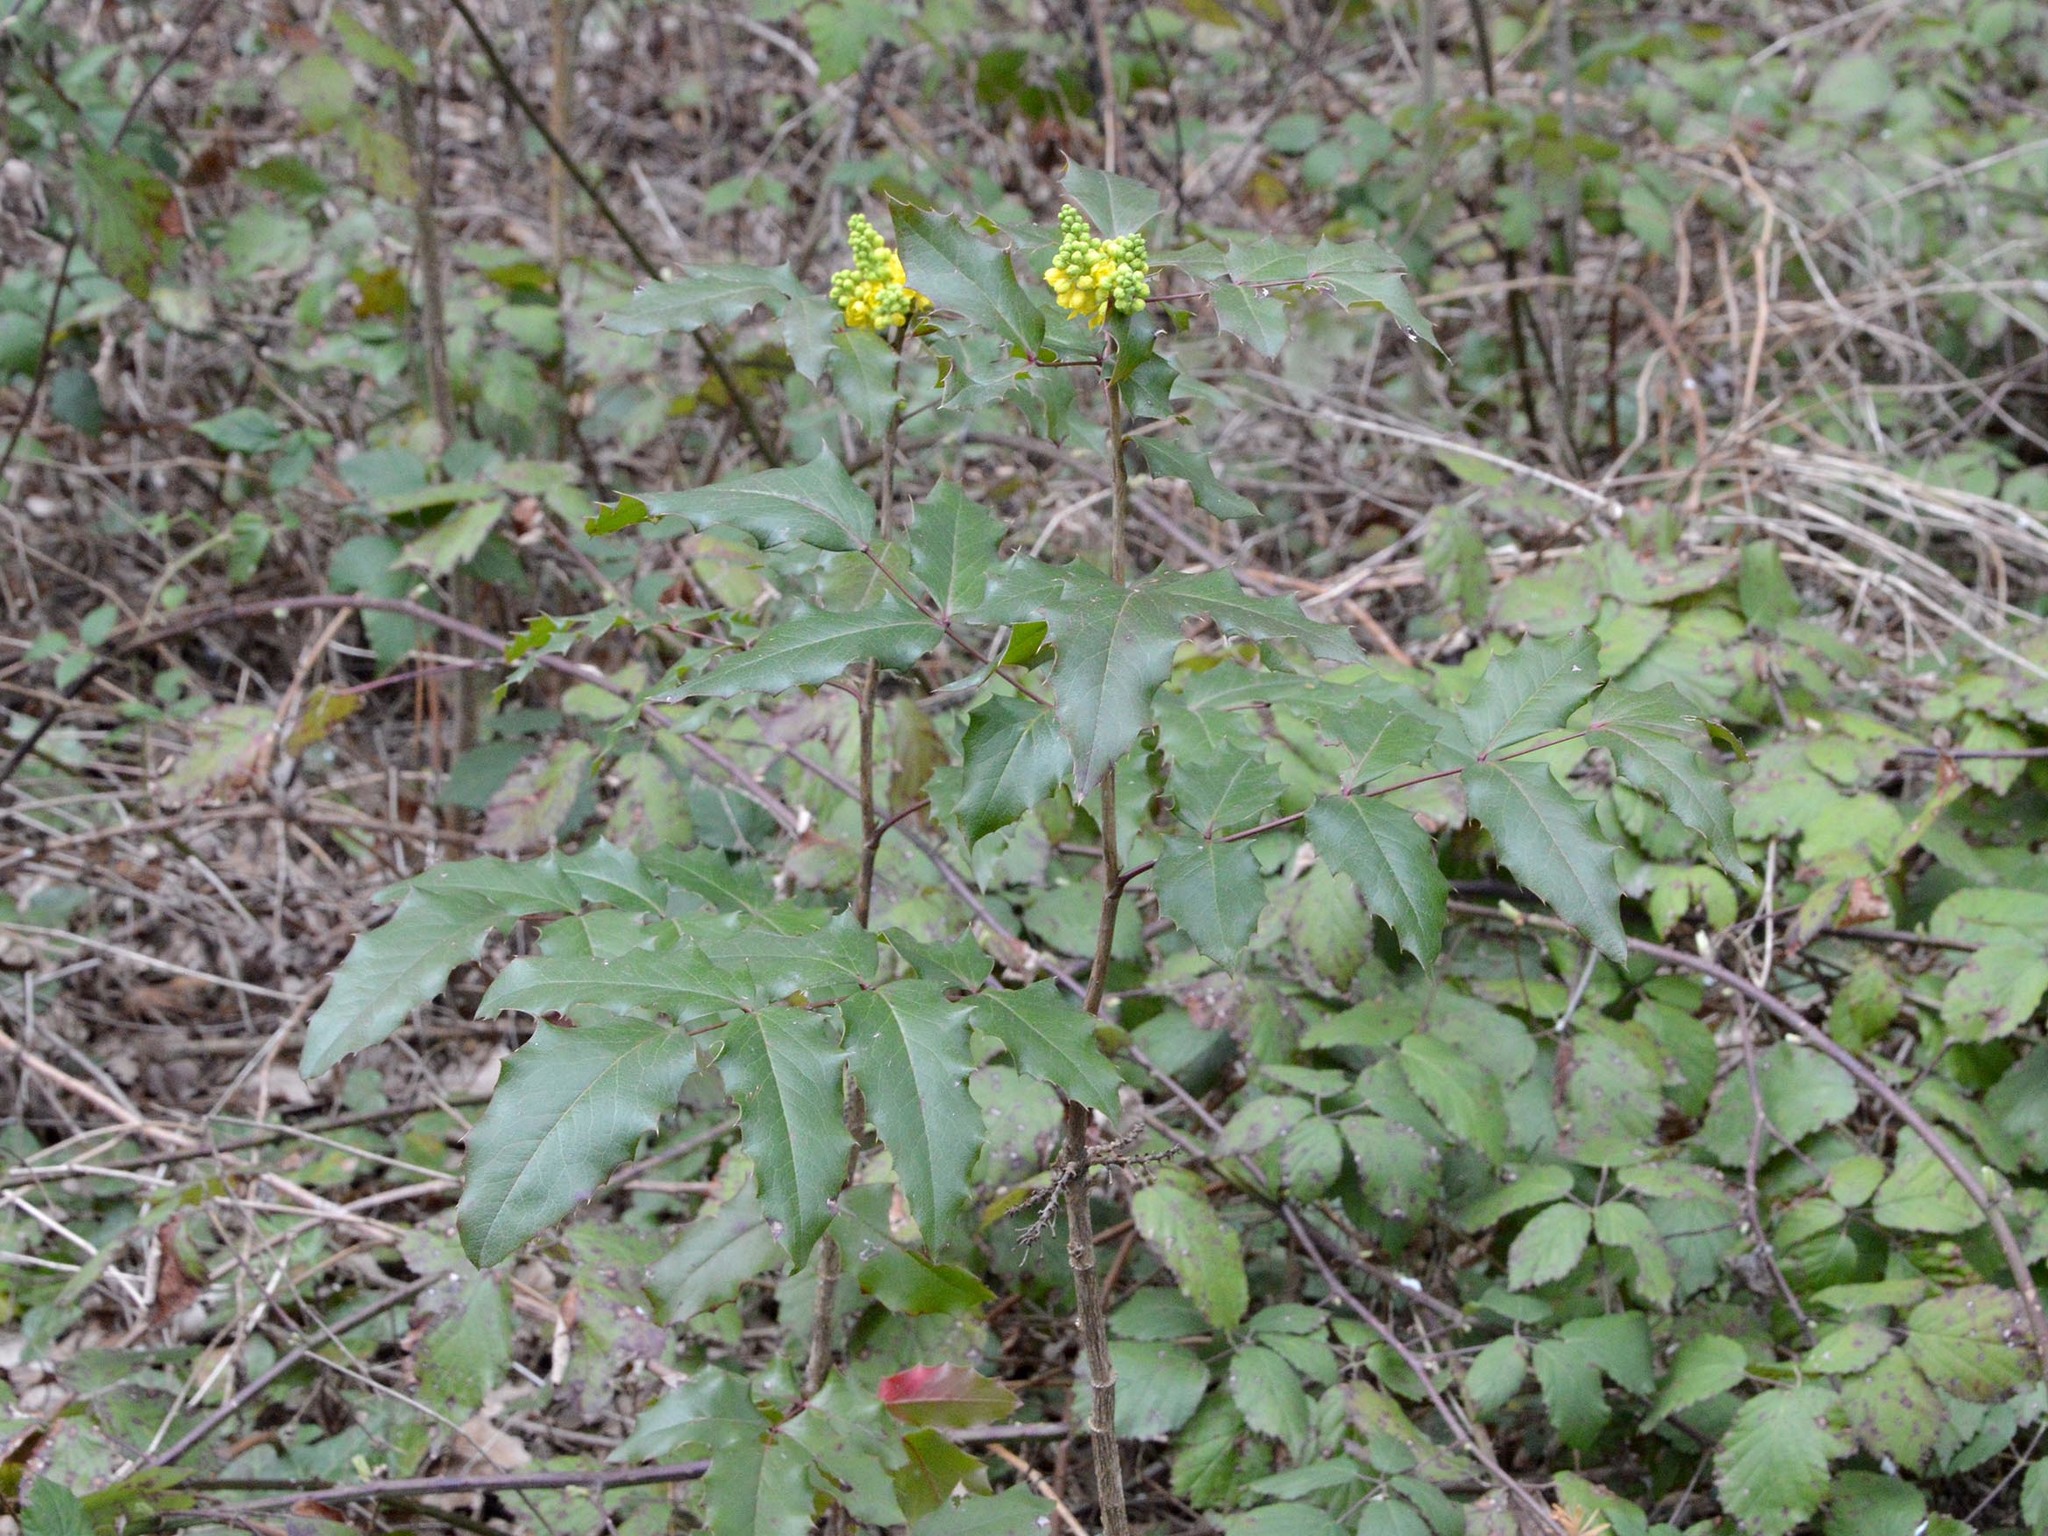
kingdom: Plantae
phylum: Tracheophyta
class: Magnoliopsida
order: Ranunculales
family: Berberidaceae
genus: Mahonia
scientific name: Mahonia aquifolium
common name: Oregon-grape
